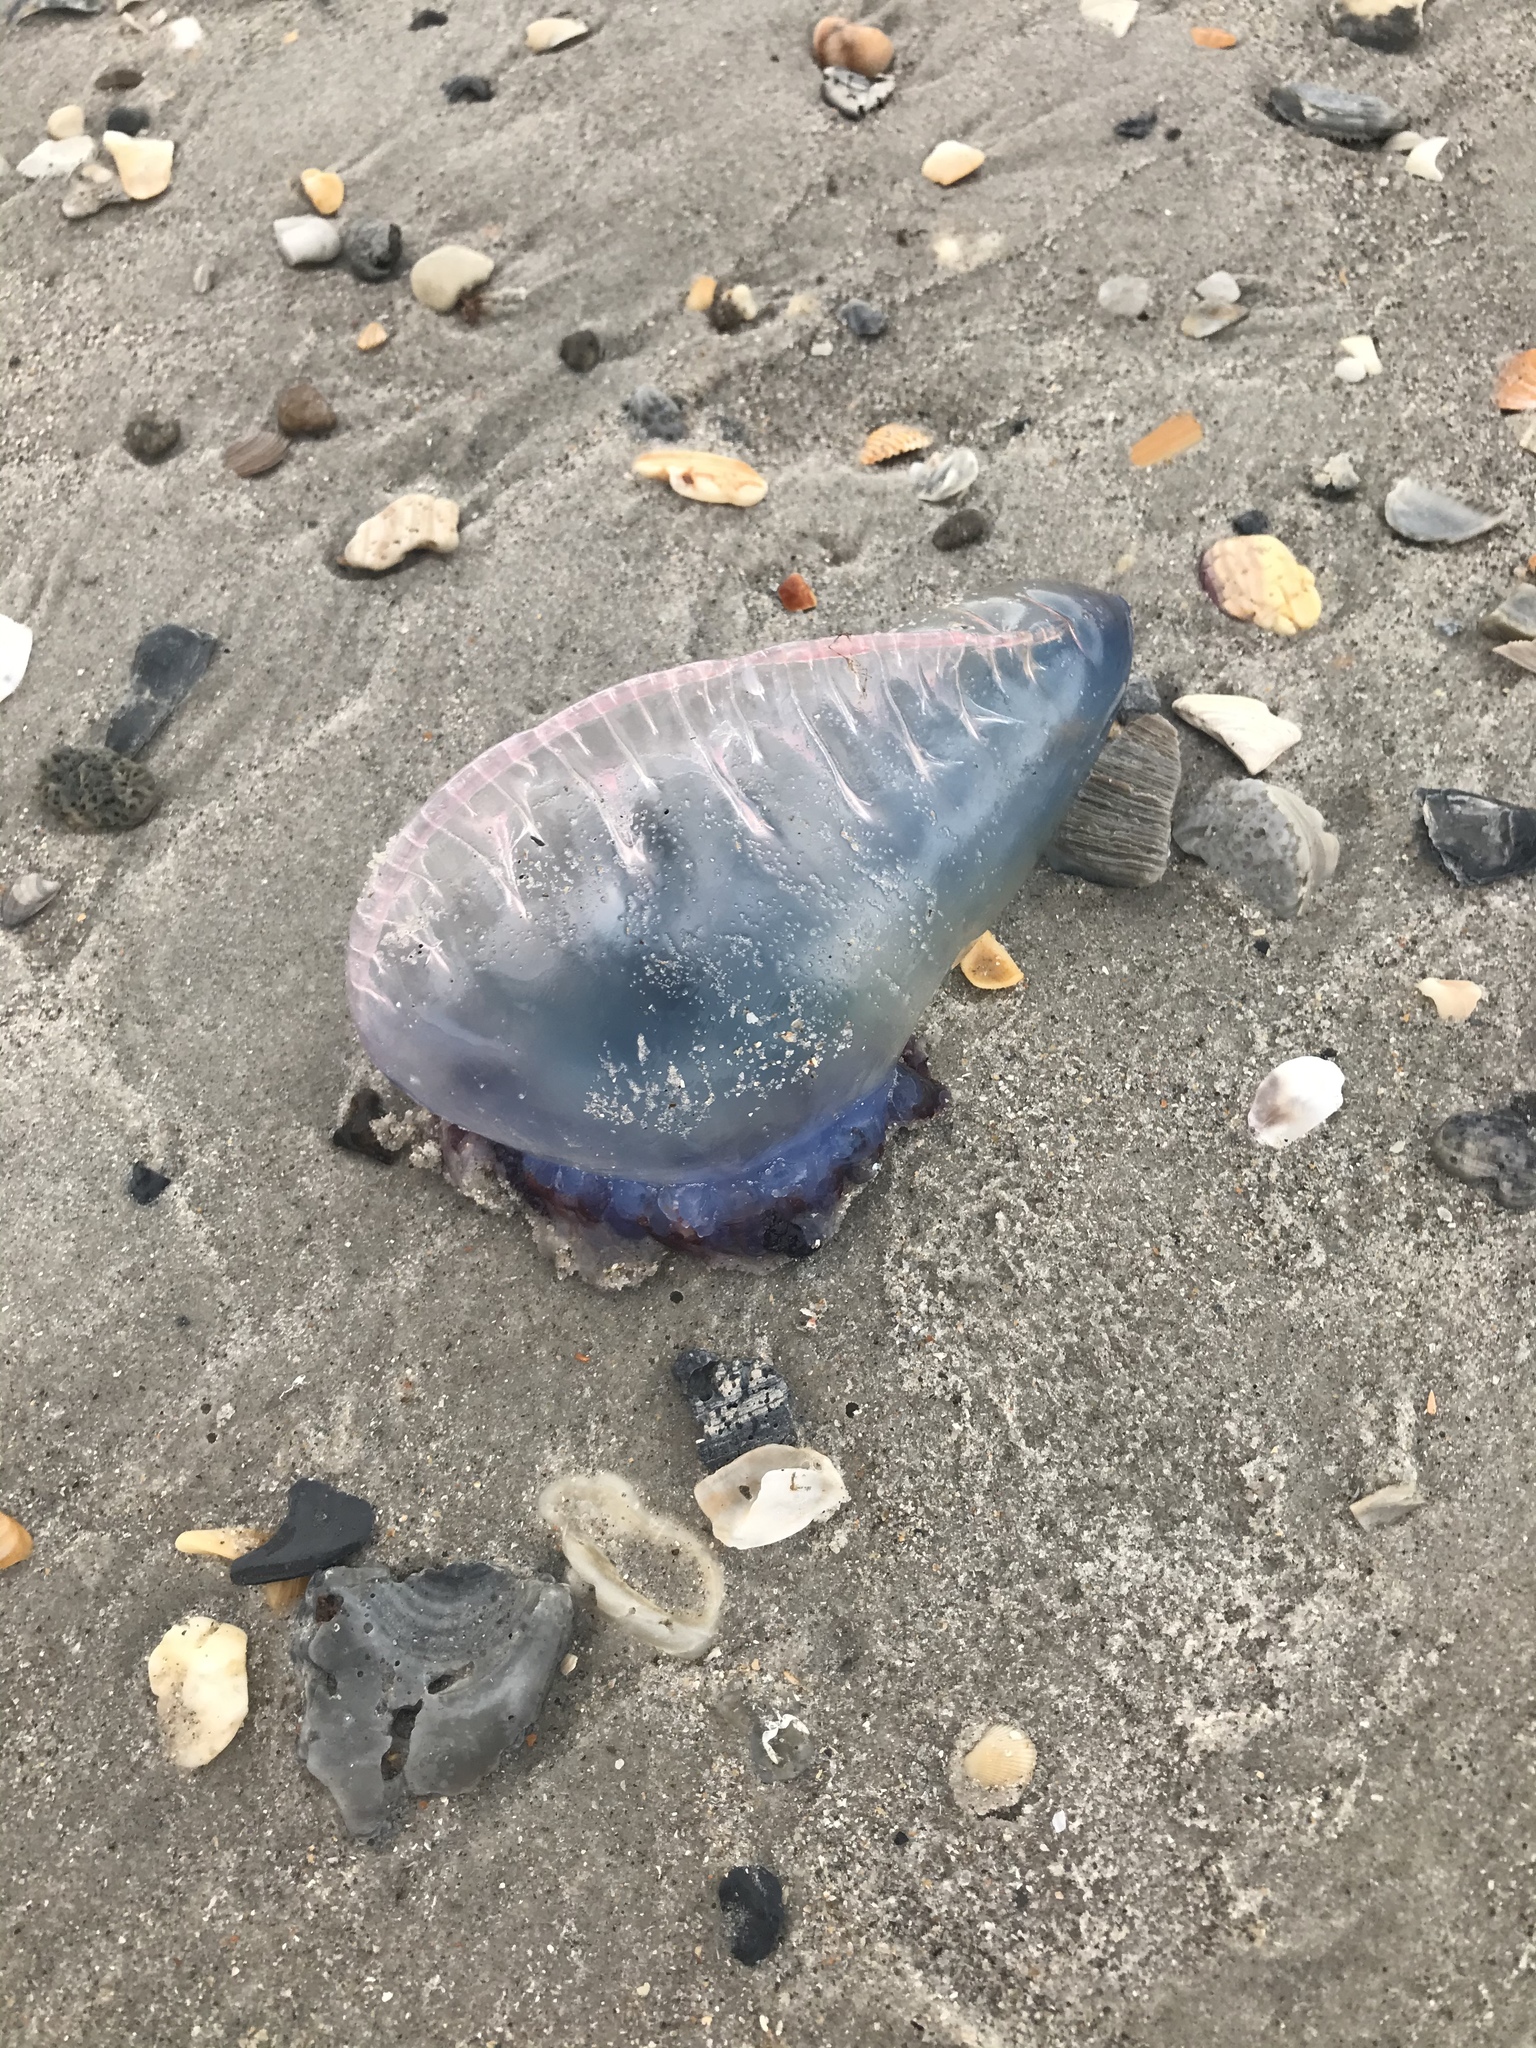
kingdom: Animalia
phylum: Cnidaria
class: Hydrozoa
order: Siphonophorae
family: Physaliidae
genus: Physalia
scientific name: Physalia physalis
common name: Portuguese man-of-war
